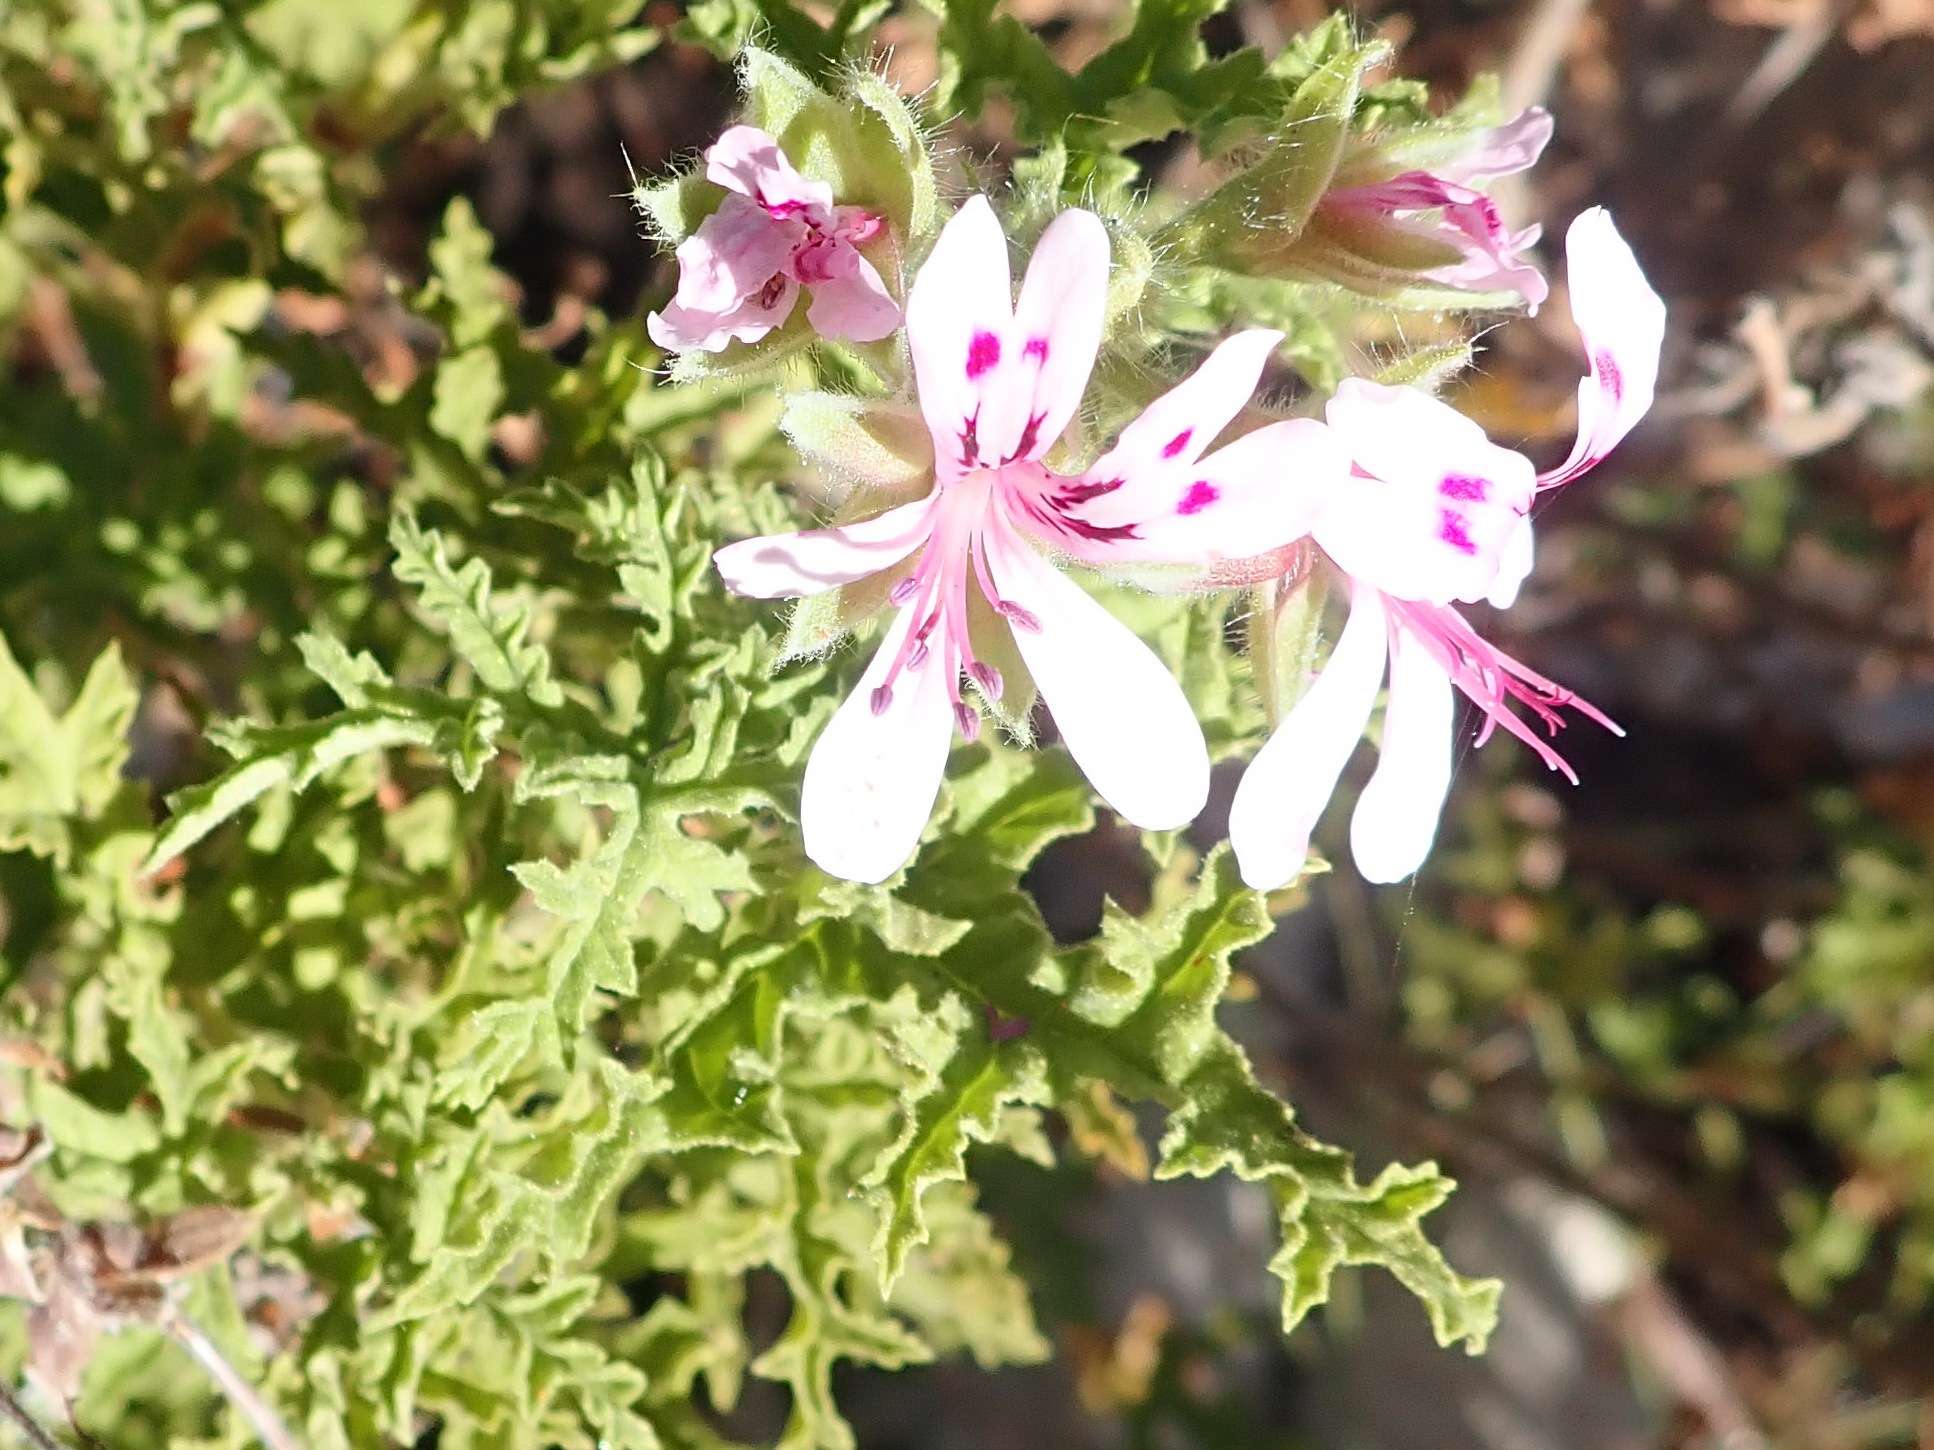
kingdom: Plantae
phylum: Tracheophyta
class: Magnoliopsida
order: Geraniales
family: Geraniaceae
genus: Pelargonium
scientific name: Pelargonium quercifolium
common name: Oakleaf geranium
